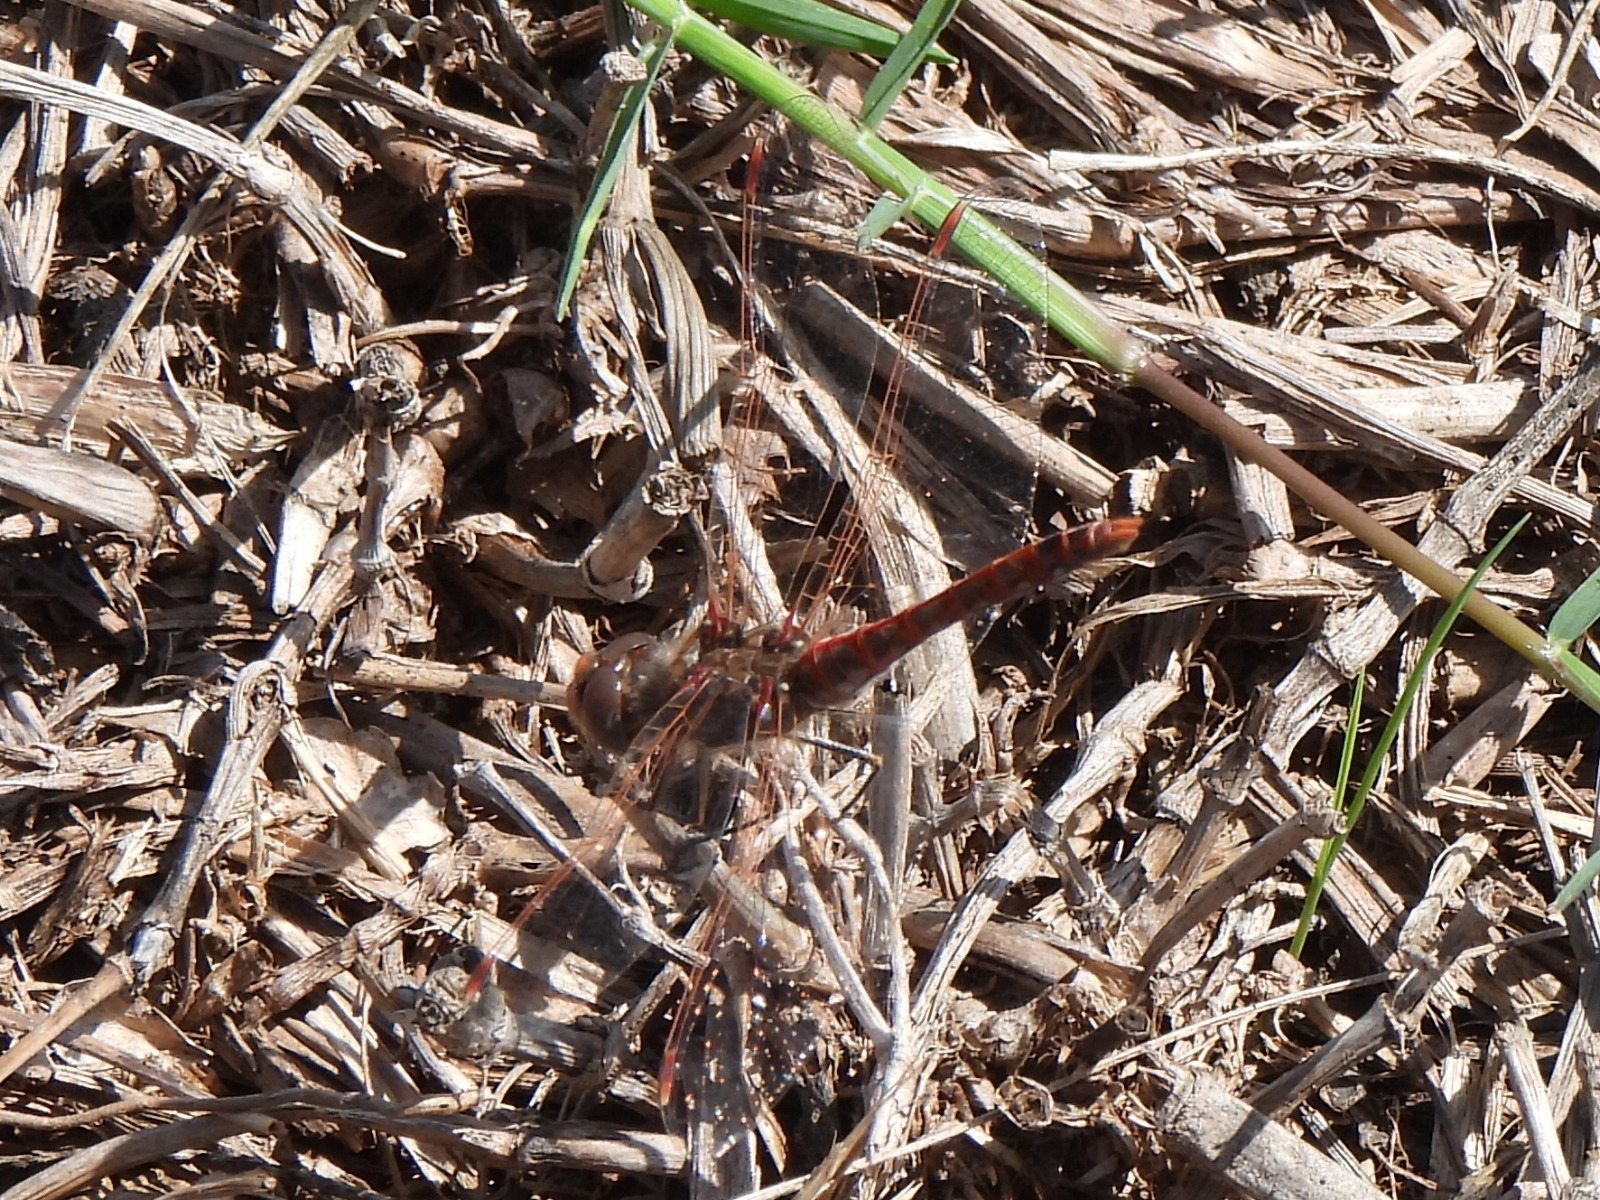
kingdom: Animalia
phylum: Arthropoda
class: Insecta
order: Odonata
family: Libellulidae
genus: Sympetrum
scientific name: Sympetrum corruptum
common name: Variegated meadowhawk
